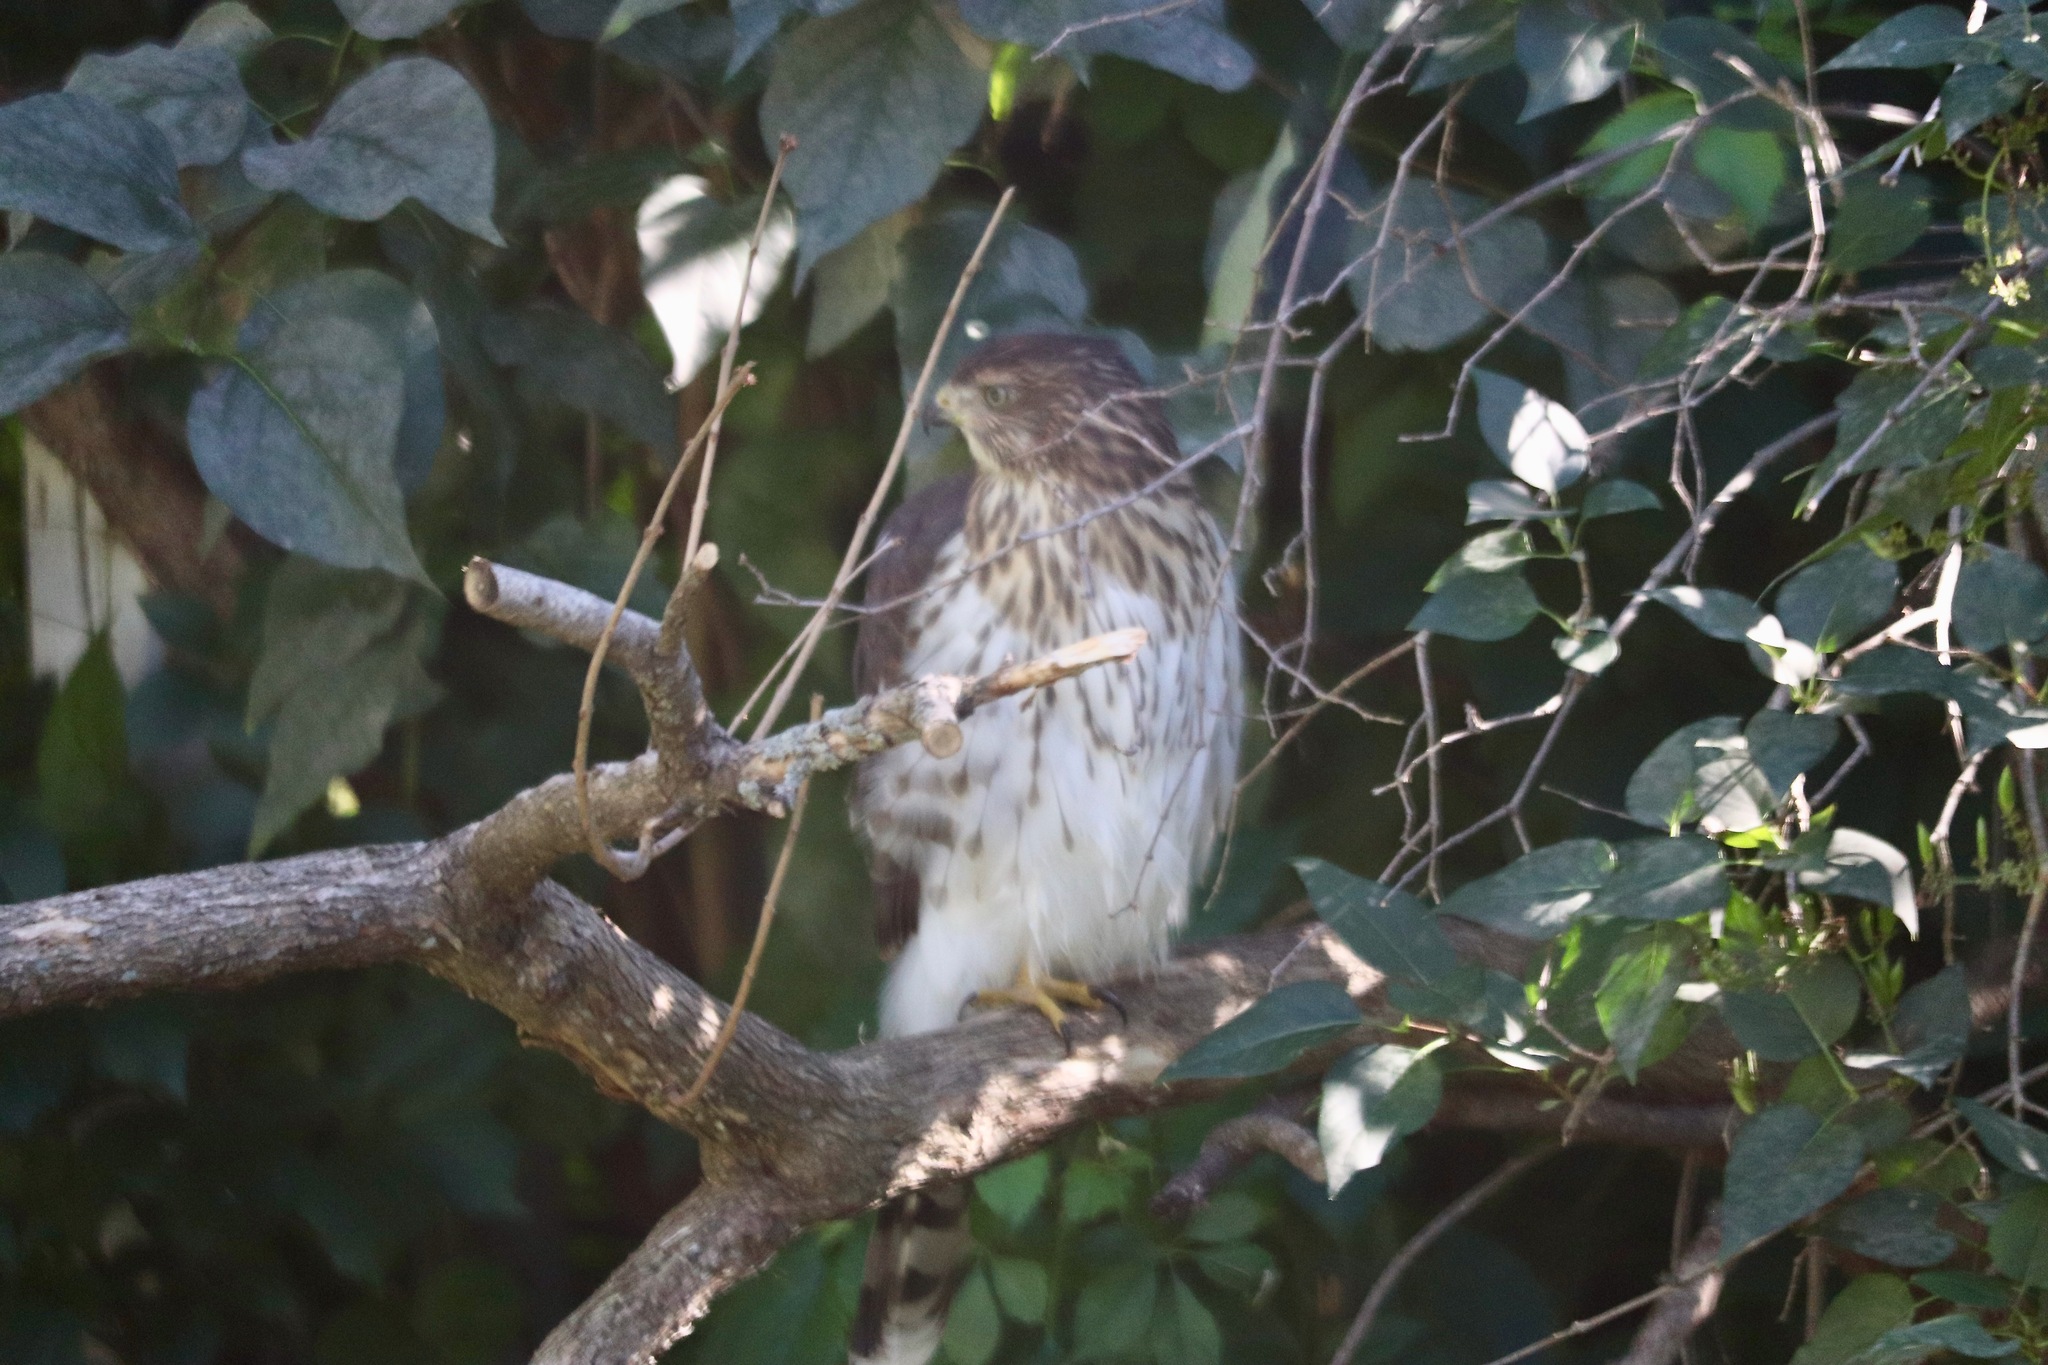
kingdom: Animalia
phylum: Chordata
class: Aves
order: Accipitriformes
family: Accipitridae
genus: Accipiter
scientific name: Accipiter cooperii
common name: Cooper's hawk
